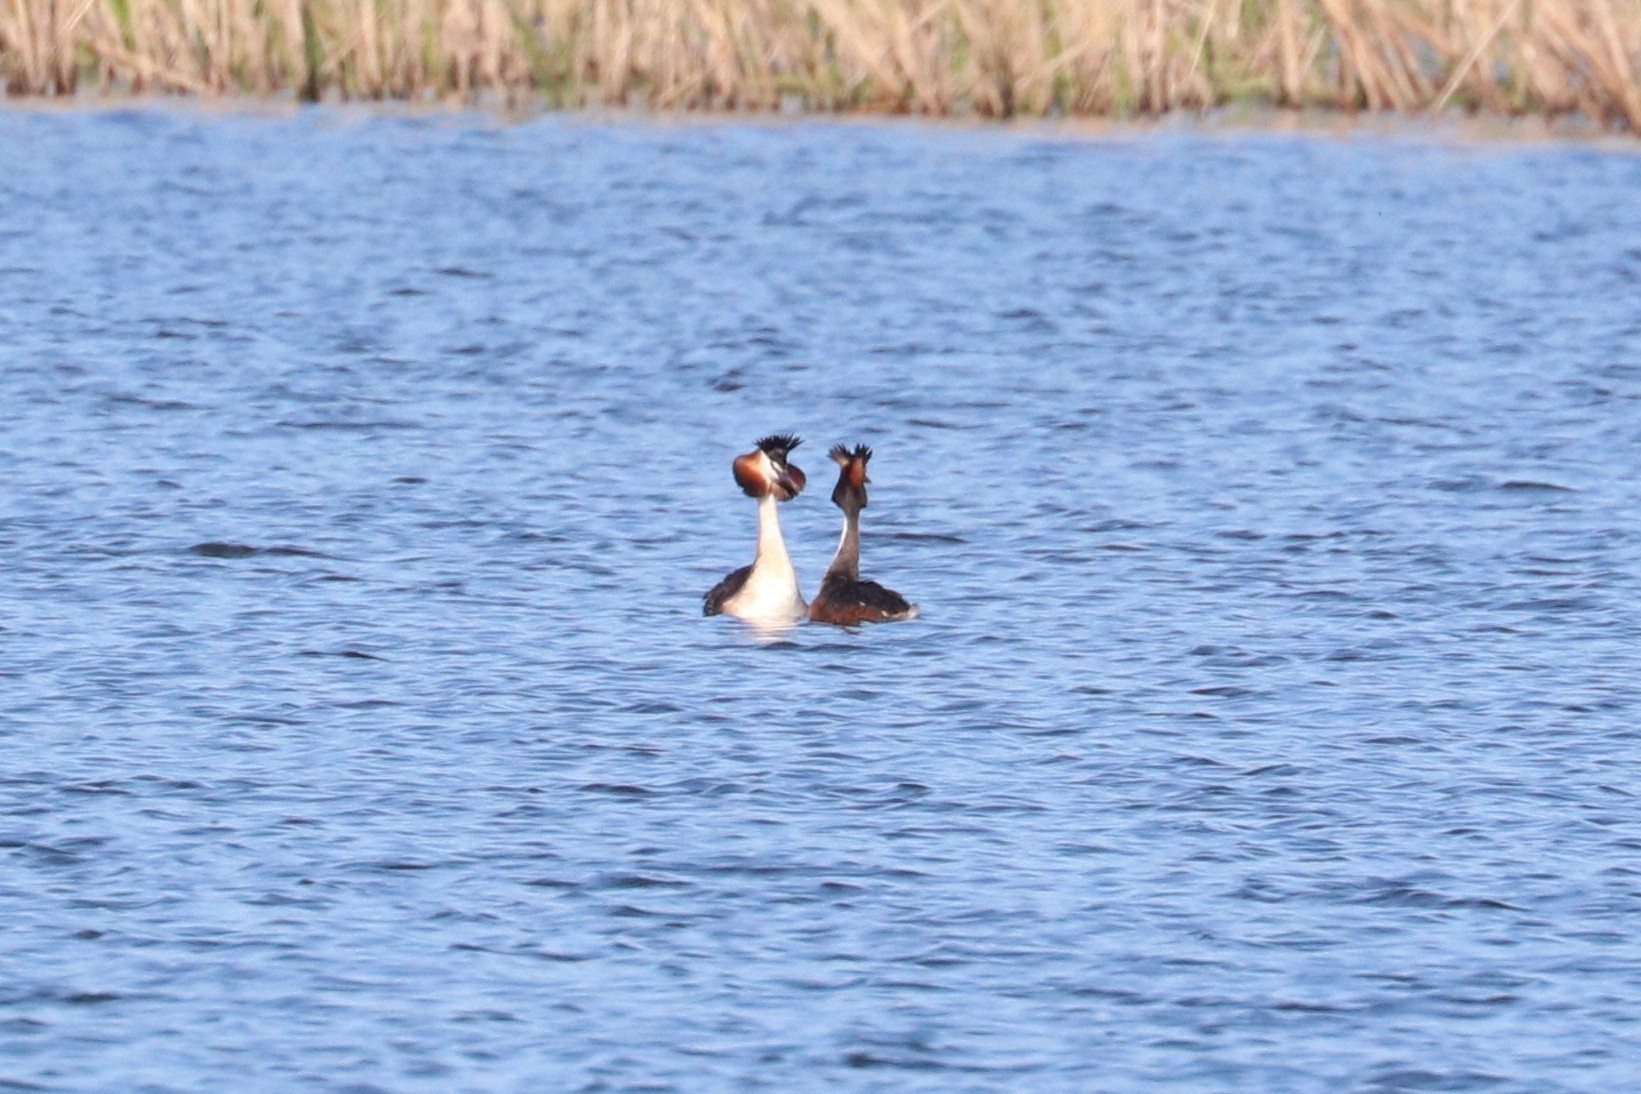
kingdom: Animalia
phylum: Chordata
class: Aves
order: Podicipediformes
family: Podicipedidae
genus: Podiceps
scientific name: Podiceps cristatus
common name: Great crested grebe
